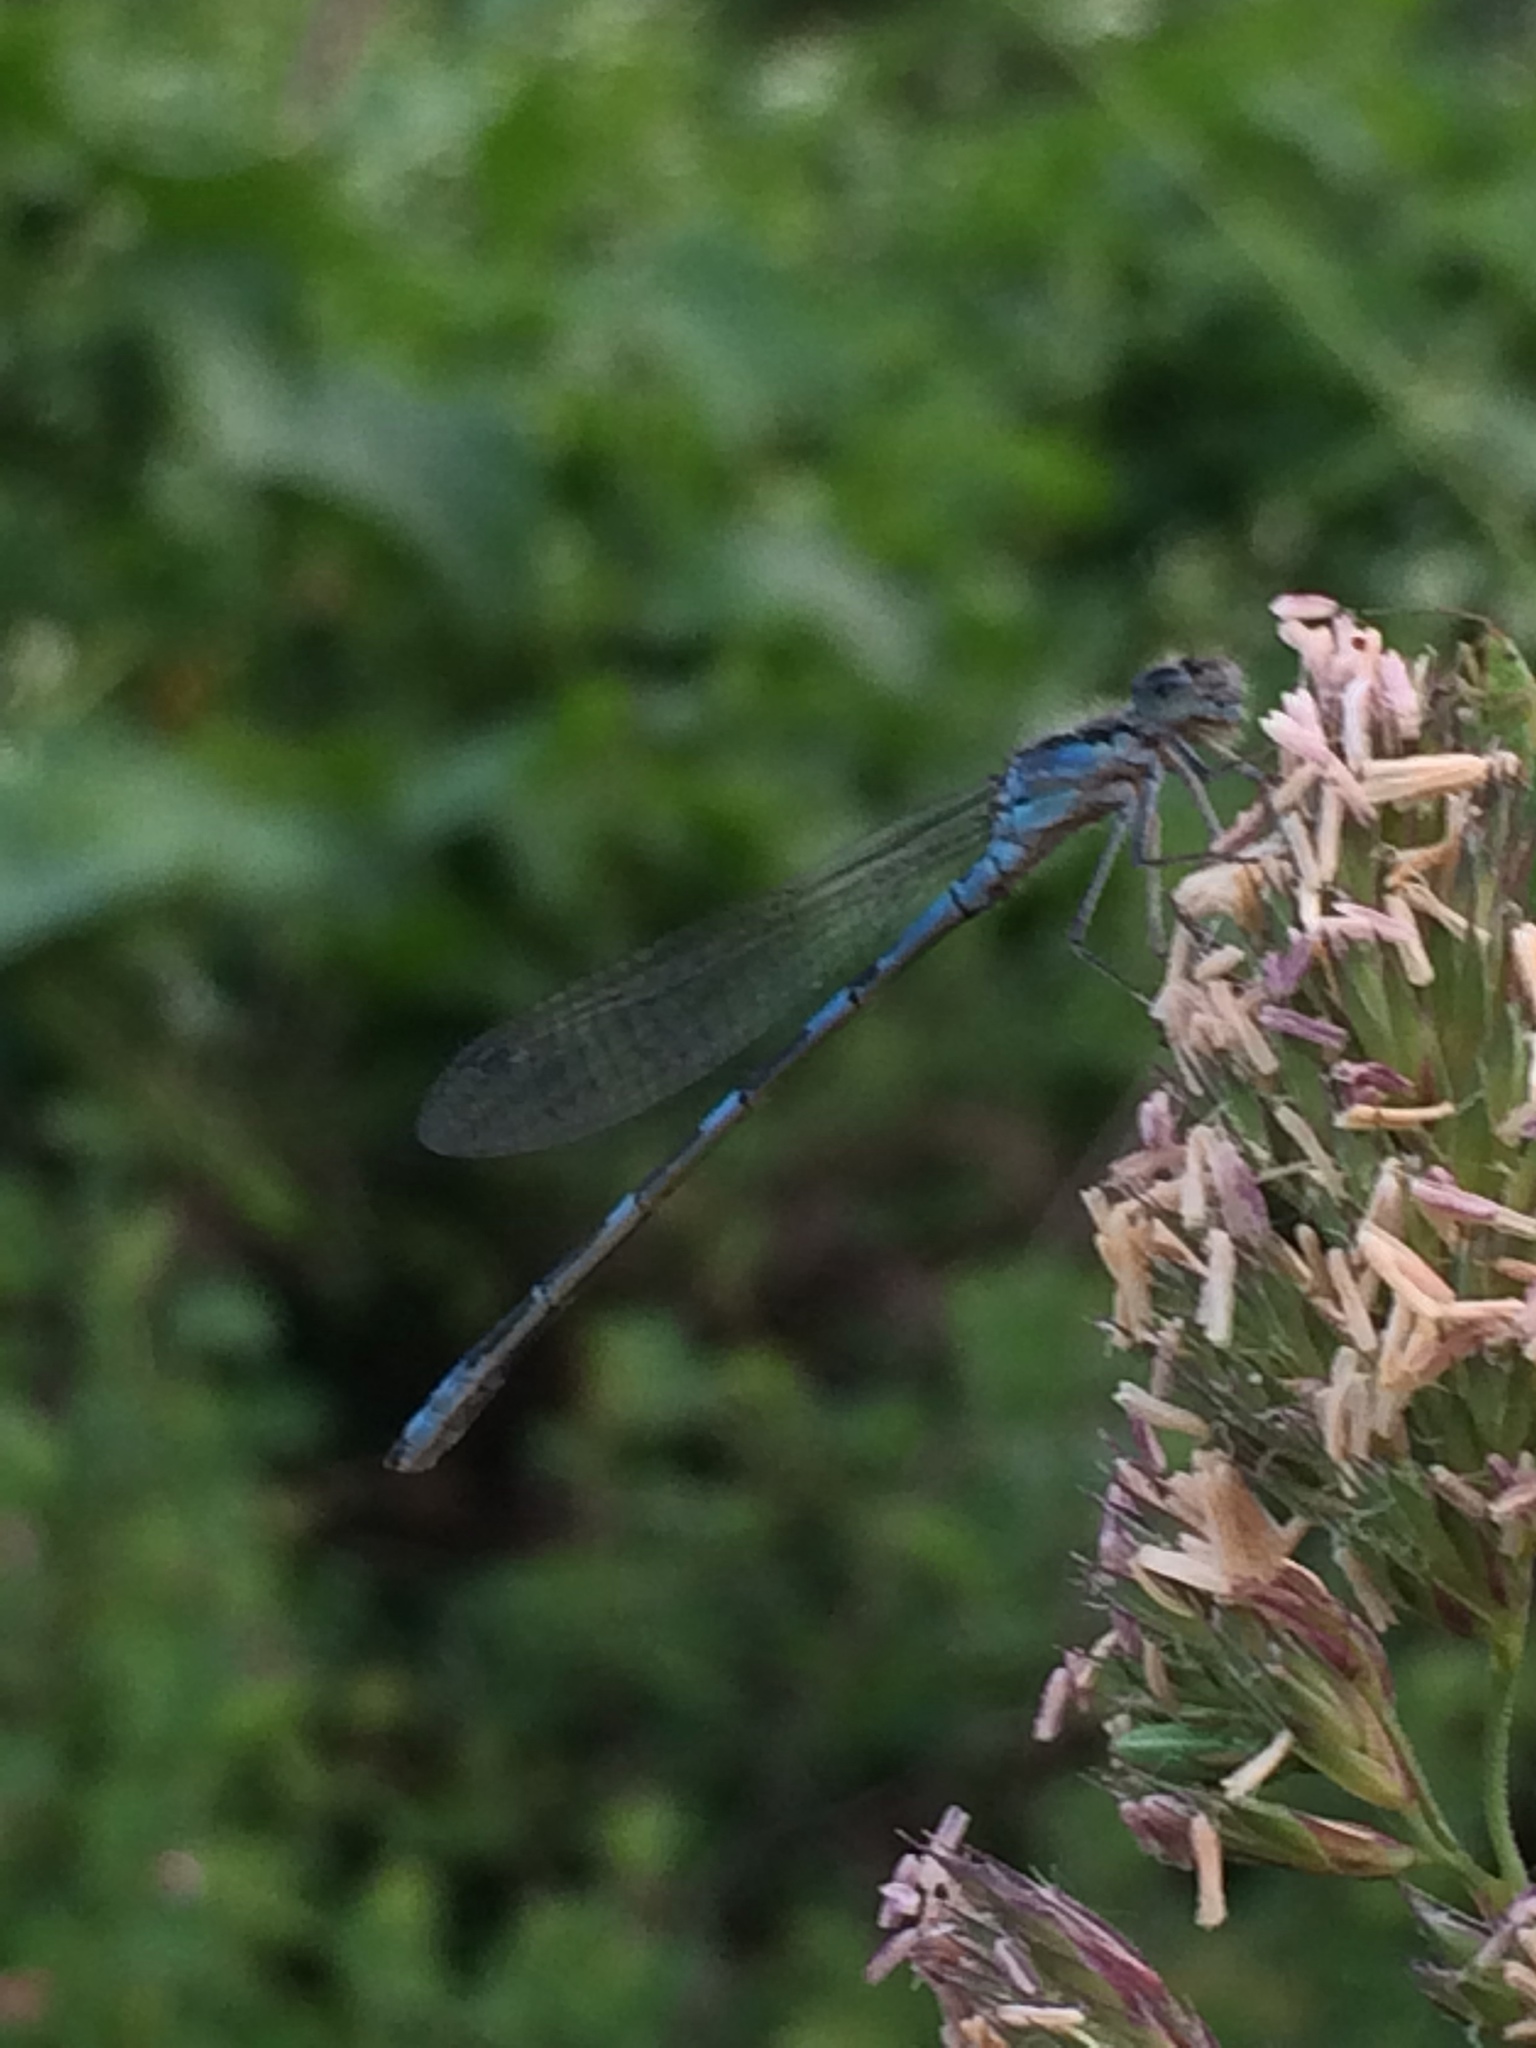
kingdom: Animalia
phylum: Arthropoda
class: Insecta
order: Odonata
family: Coenagrionidae
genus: Enallagma
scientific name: Enallagma carunculatum
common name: Tule bluet
